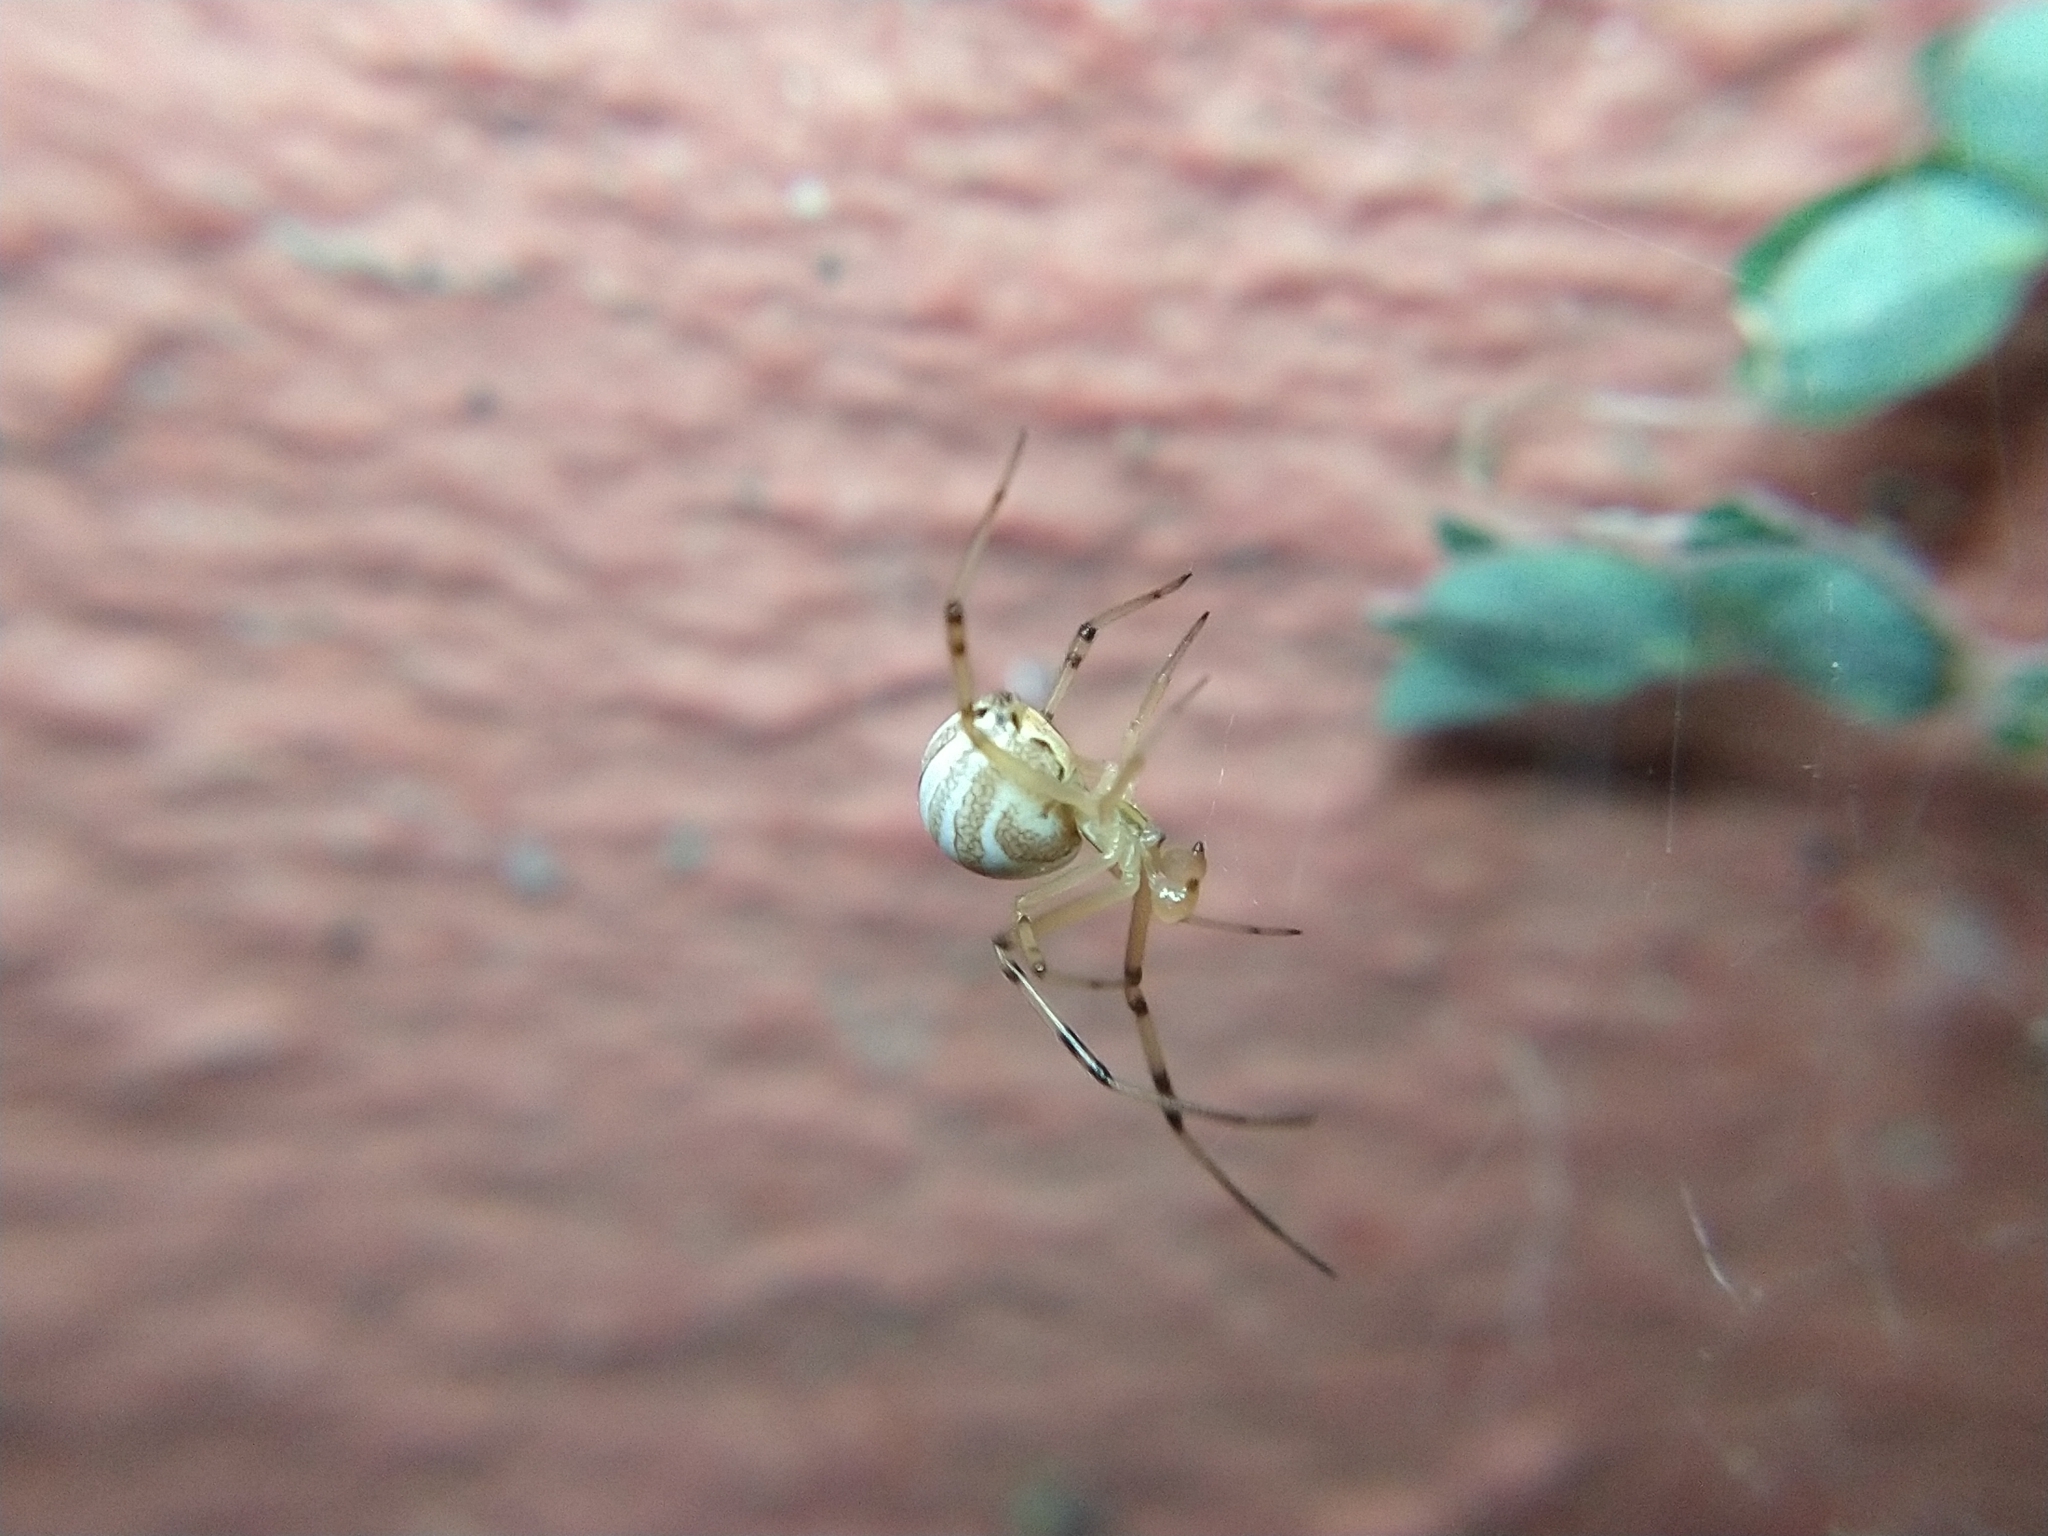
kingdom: Animalia
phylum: Arthropoda
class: Arachnida
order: Araneae
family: Theridiidae
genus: Latrodectus
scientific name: Latrodectus hesperus
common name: Western black widow
